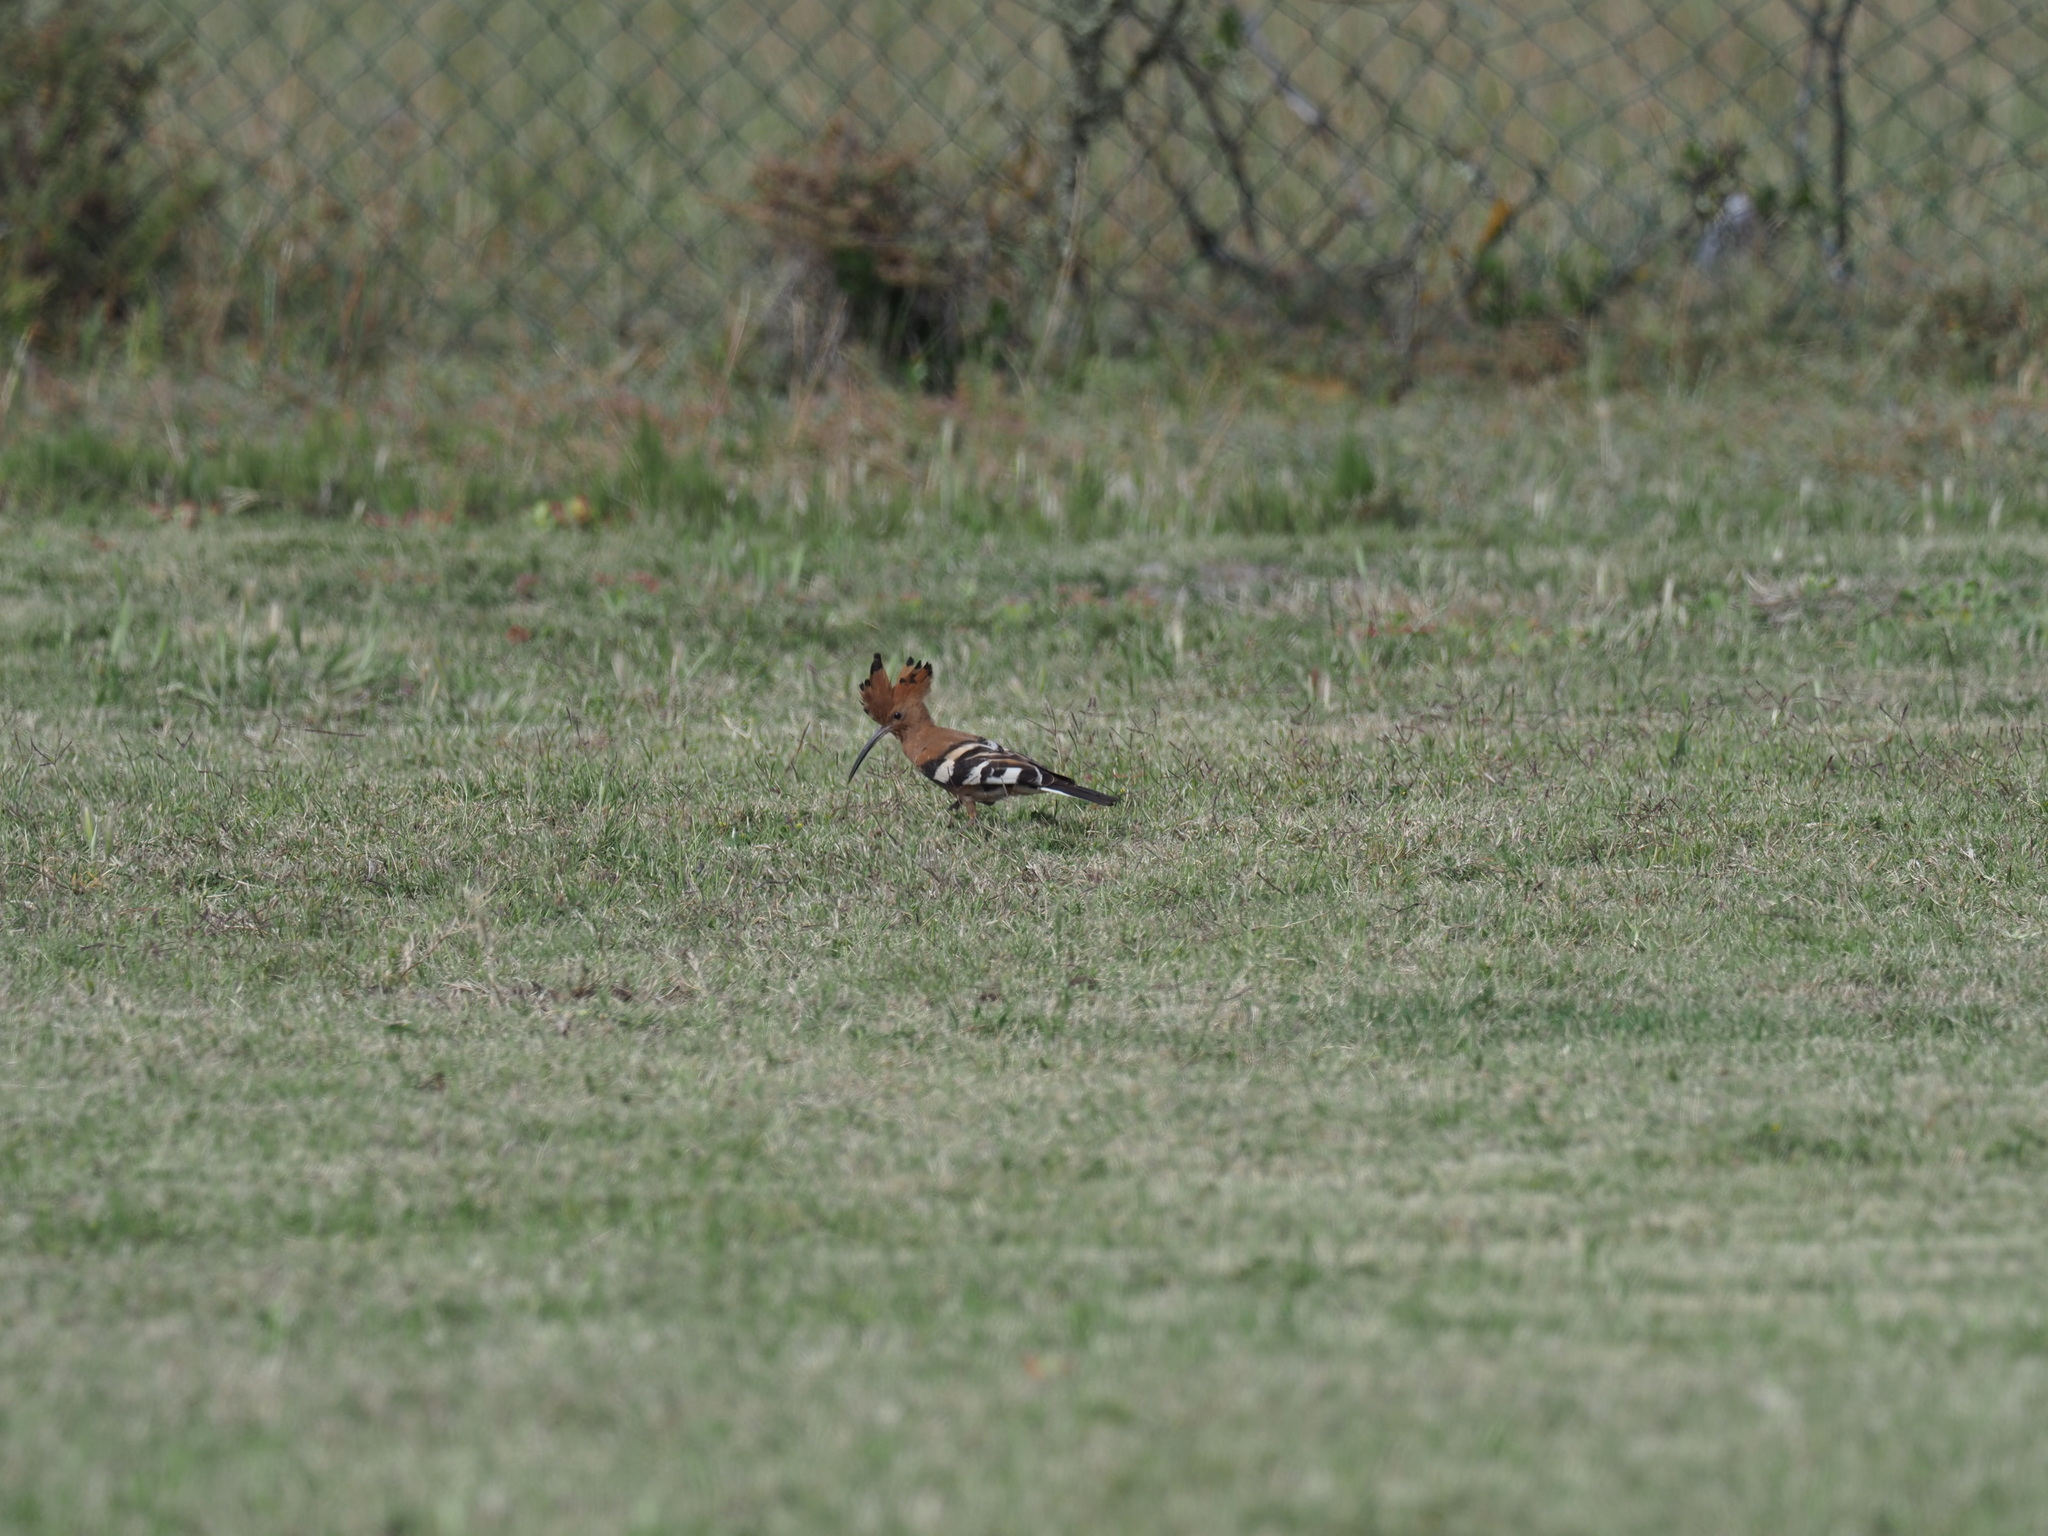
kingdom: Animalia
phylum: Chordata
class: Aves
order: Bucerotiformes
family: Upupidae
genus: Upupa
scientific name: Upupa africana
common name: African hoopoe
